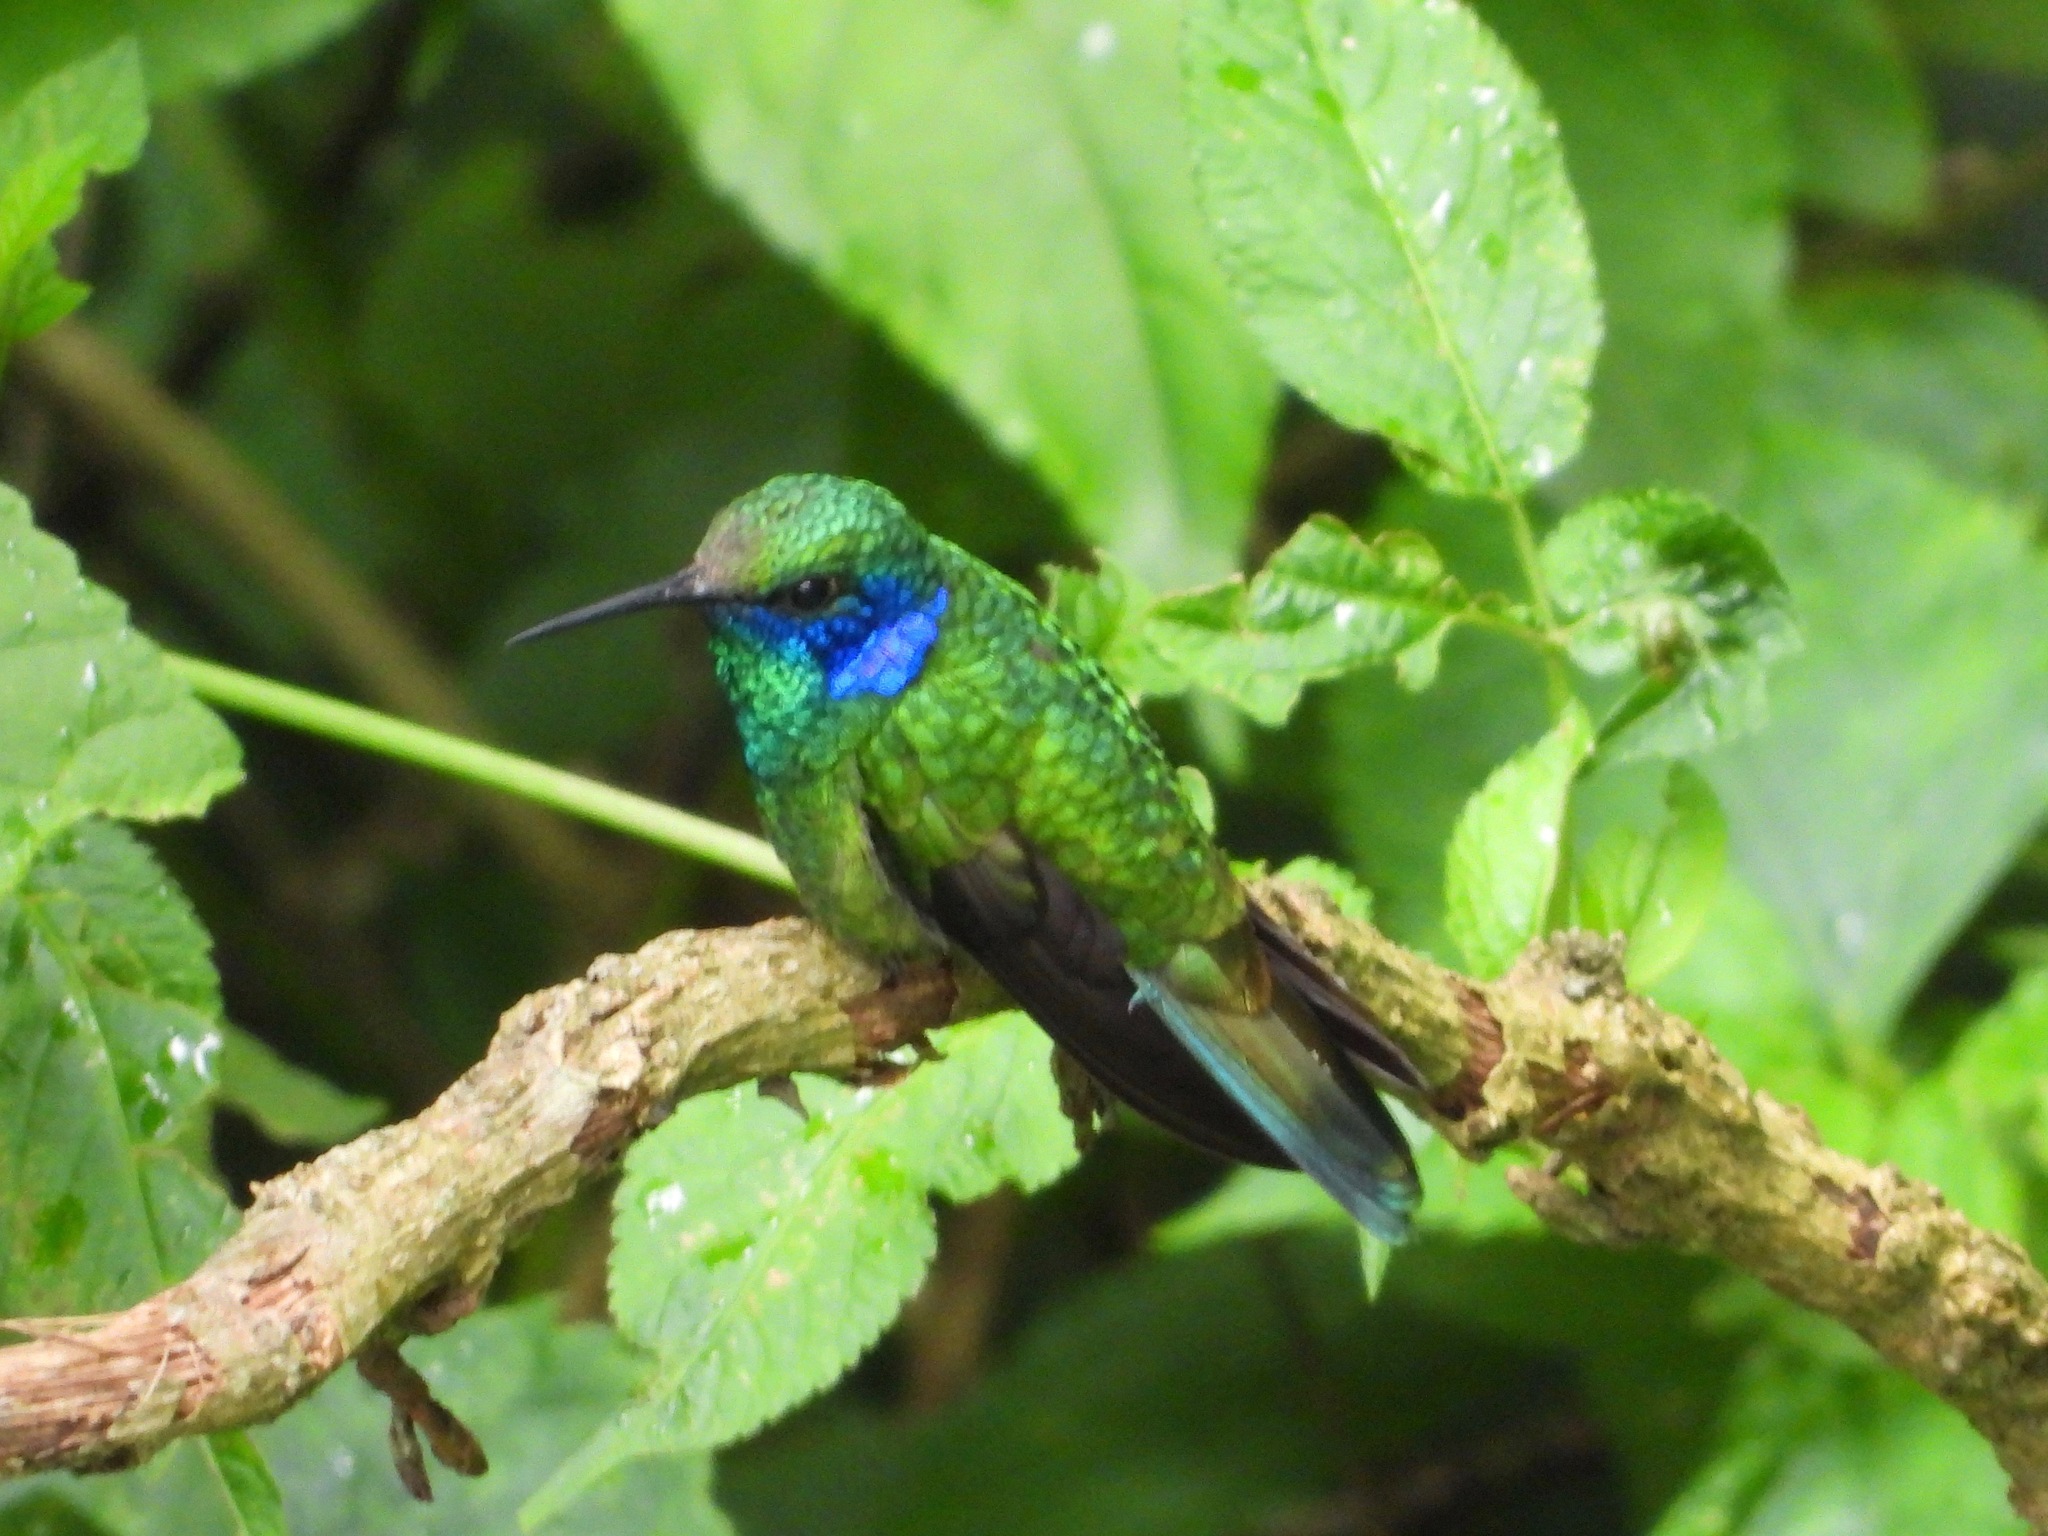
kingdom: Animalia
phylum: Chordata
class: Aves
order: Apodiformes
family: Trochilidae
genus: Colibri
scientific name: Colibri thalassinus
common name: Green violetear
